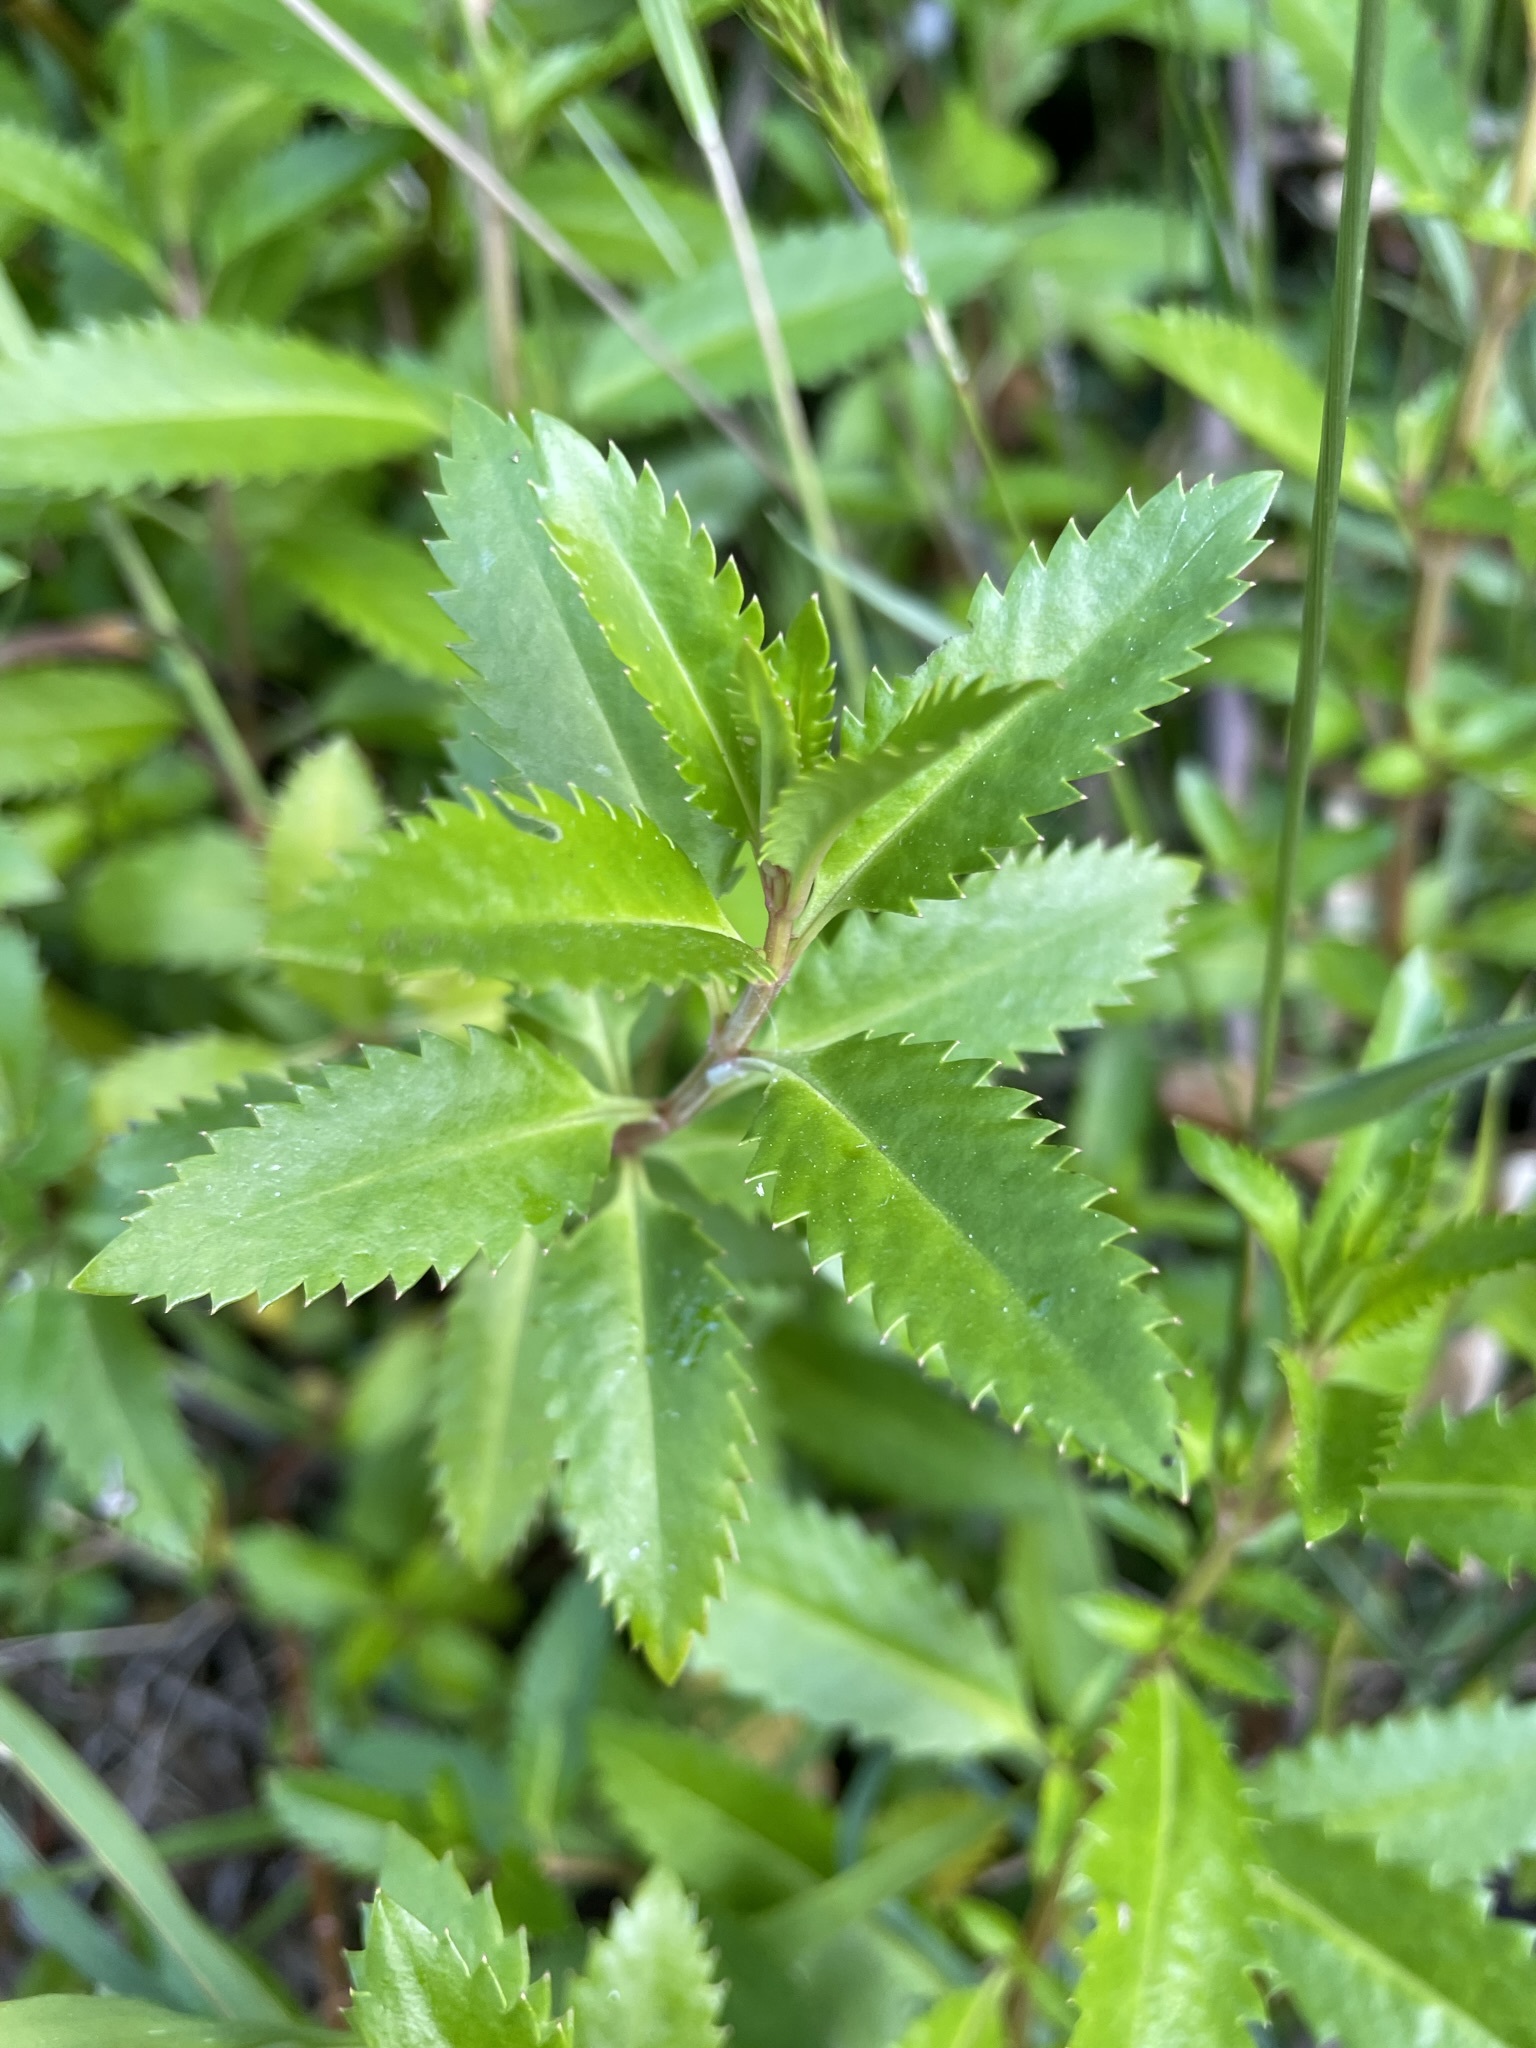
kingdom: Plantae
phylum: Tracheophyta
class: Magnoliopsida
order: Saxifragales
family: Haloragaceae
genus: Haloragis
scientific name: Haloragis erecta
